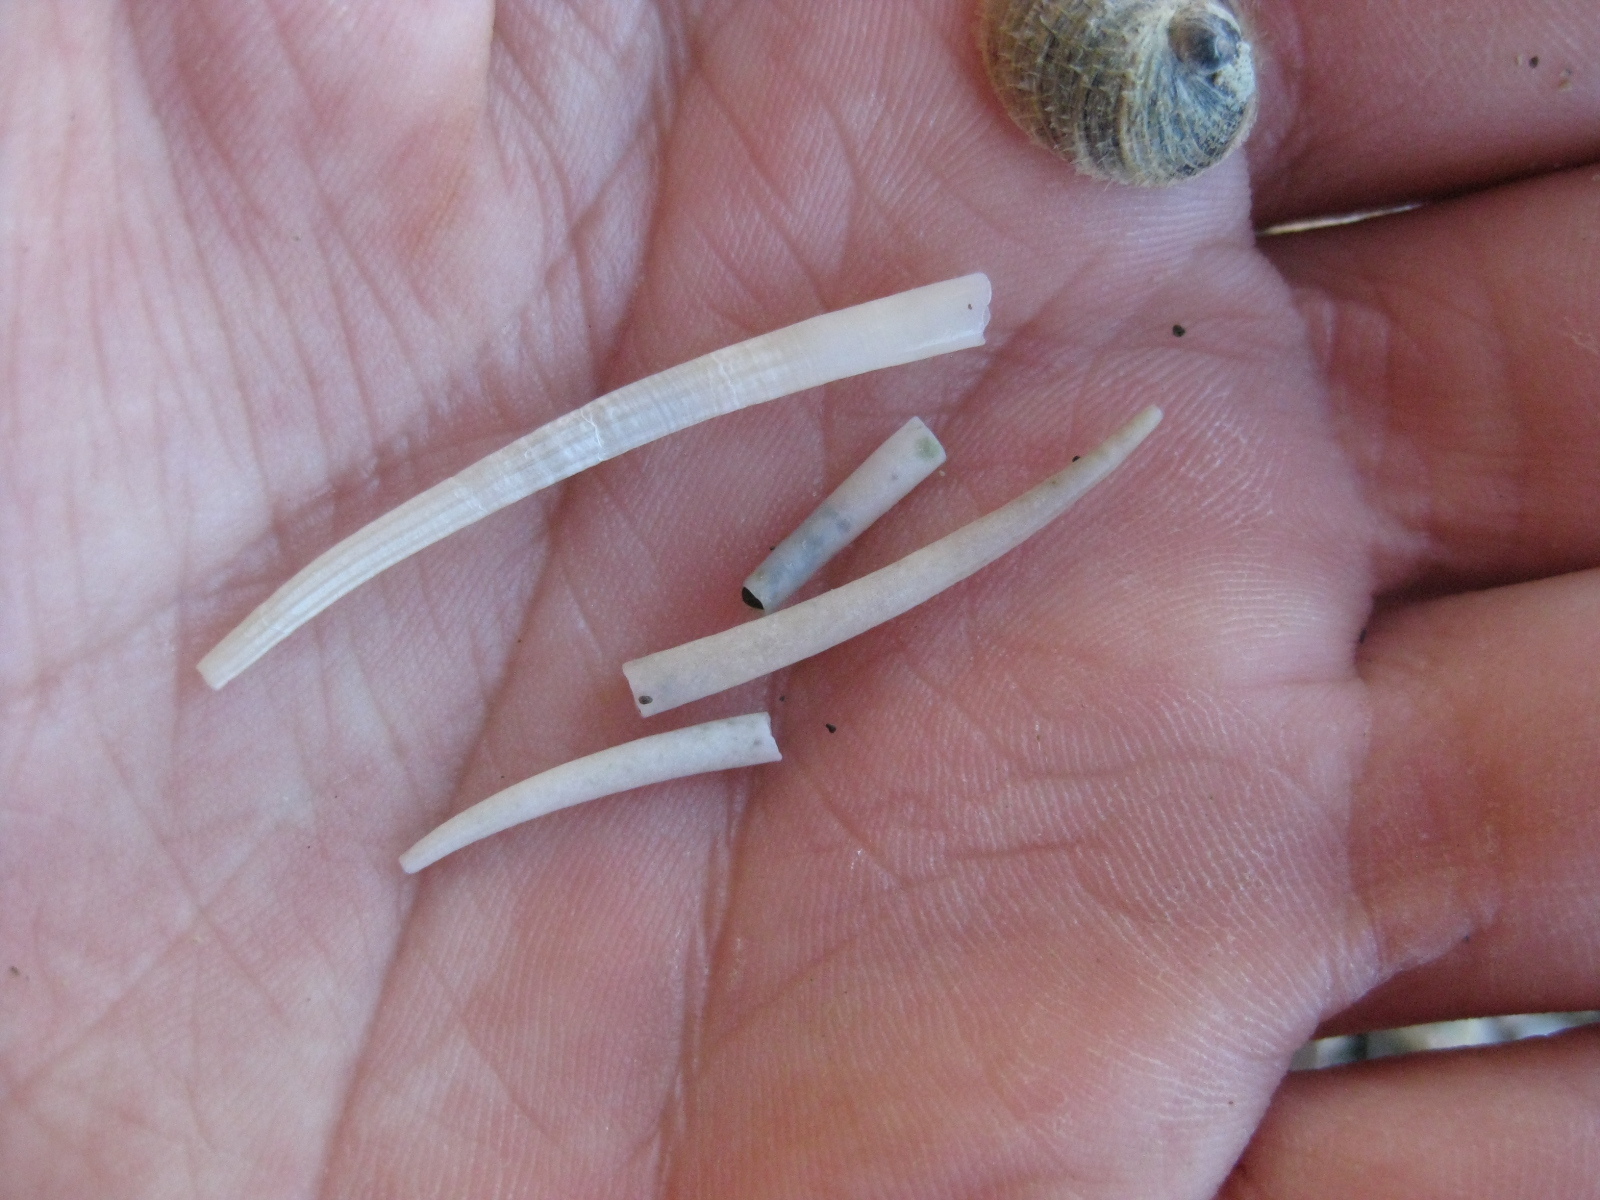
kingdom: Animalia
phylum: Mollusca
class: Scaphopoda
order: Dentaliida
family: Dentaliidae
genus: Antalis
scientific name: Antalis nana
